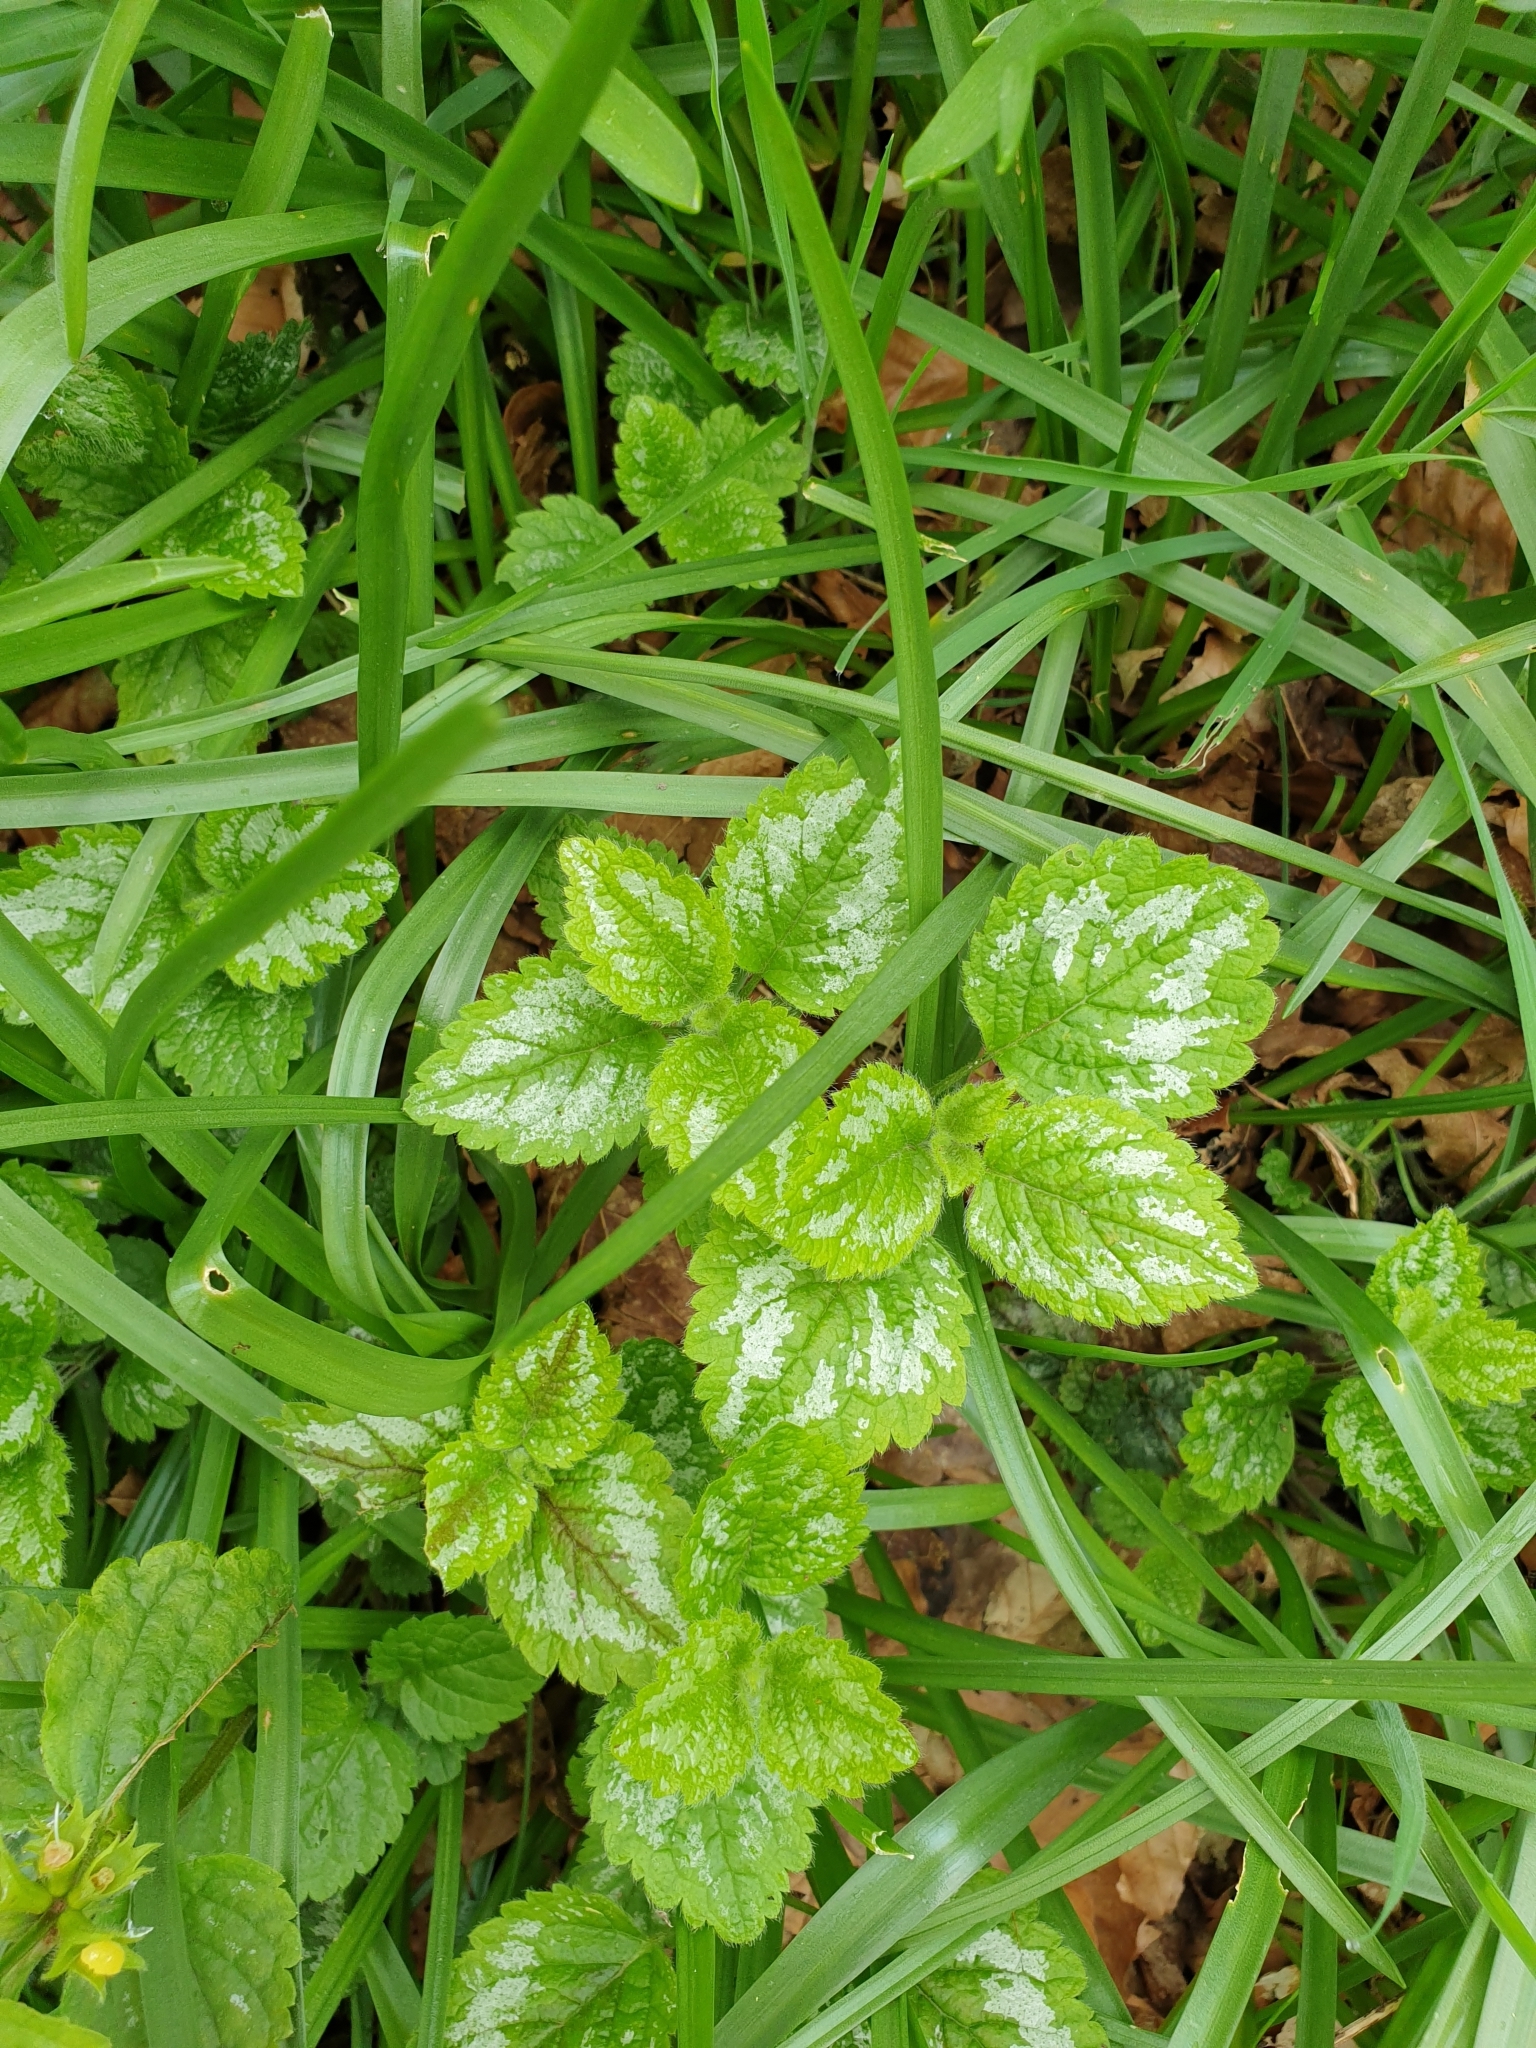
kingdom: Plantae
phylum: Tracheophyta
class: Magnoliopsida
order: Lamiales
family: Lamiaceae
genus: Lamium
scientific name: Lamium galeobdolon
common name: Yellow archangel
